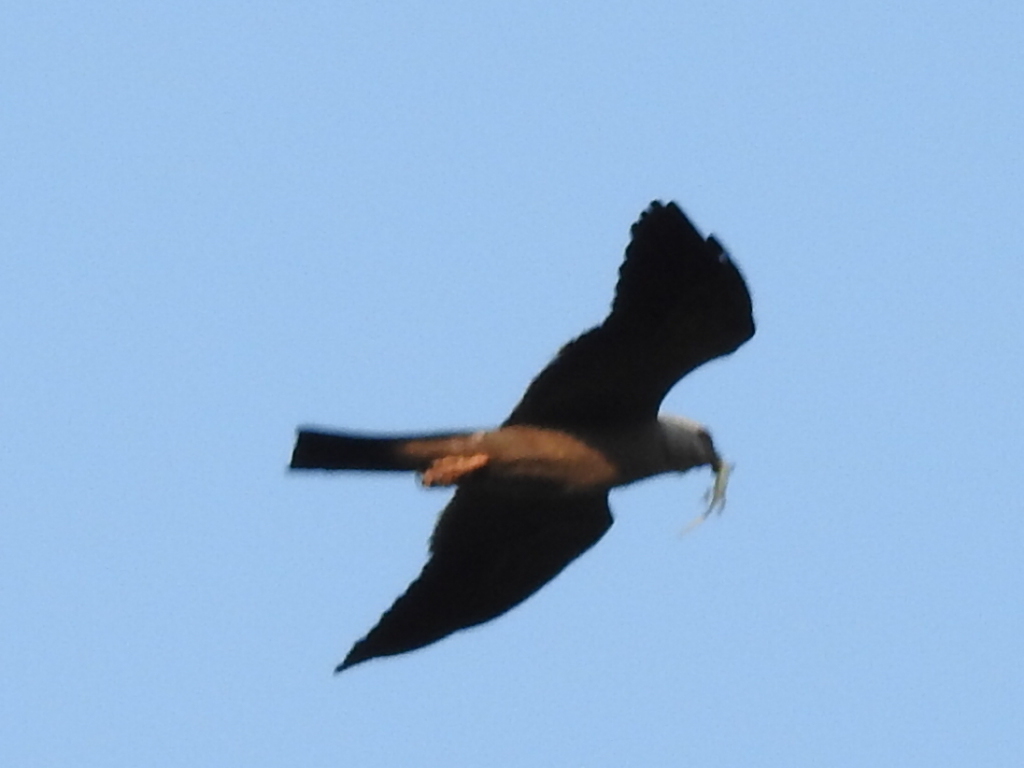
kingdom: Animalia
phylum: Chordata
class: Aves
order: Accipitriformes
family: Accipitridae
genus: Ictinia
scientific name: Ictinia mississippiensis
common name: Mississippi kite
